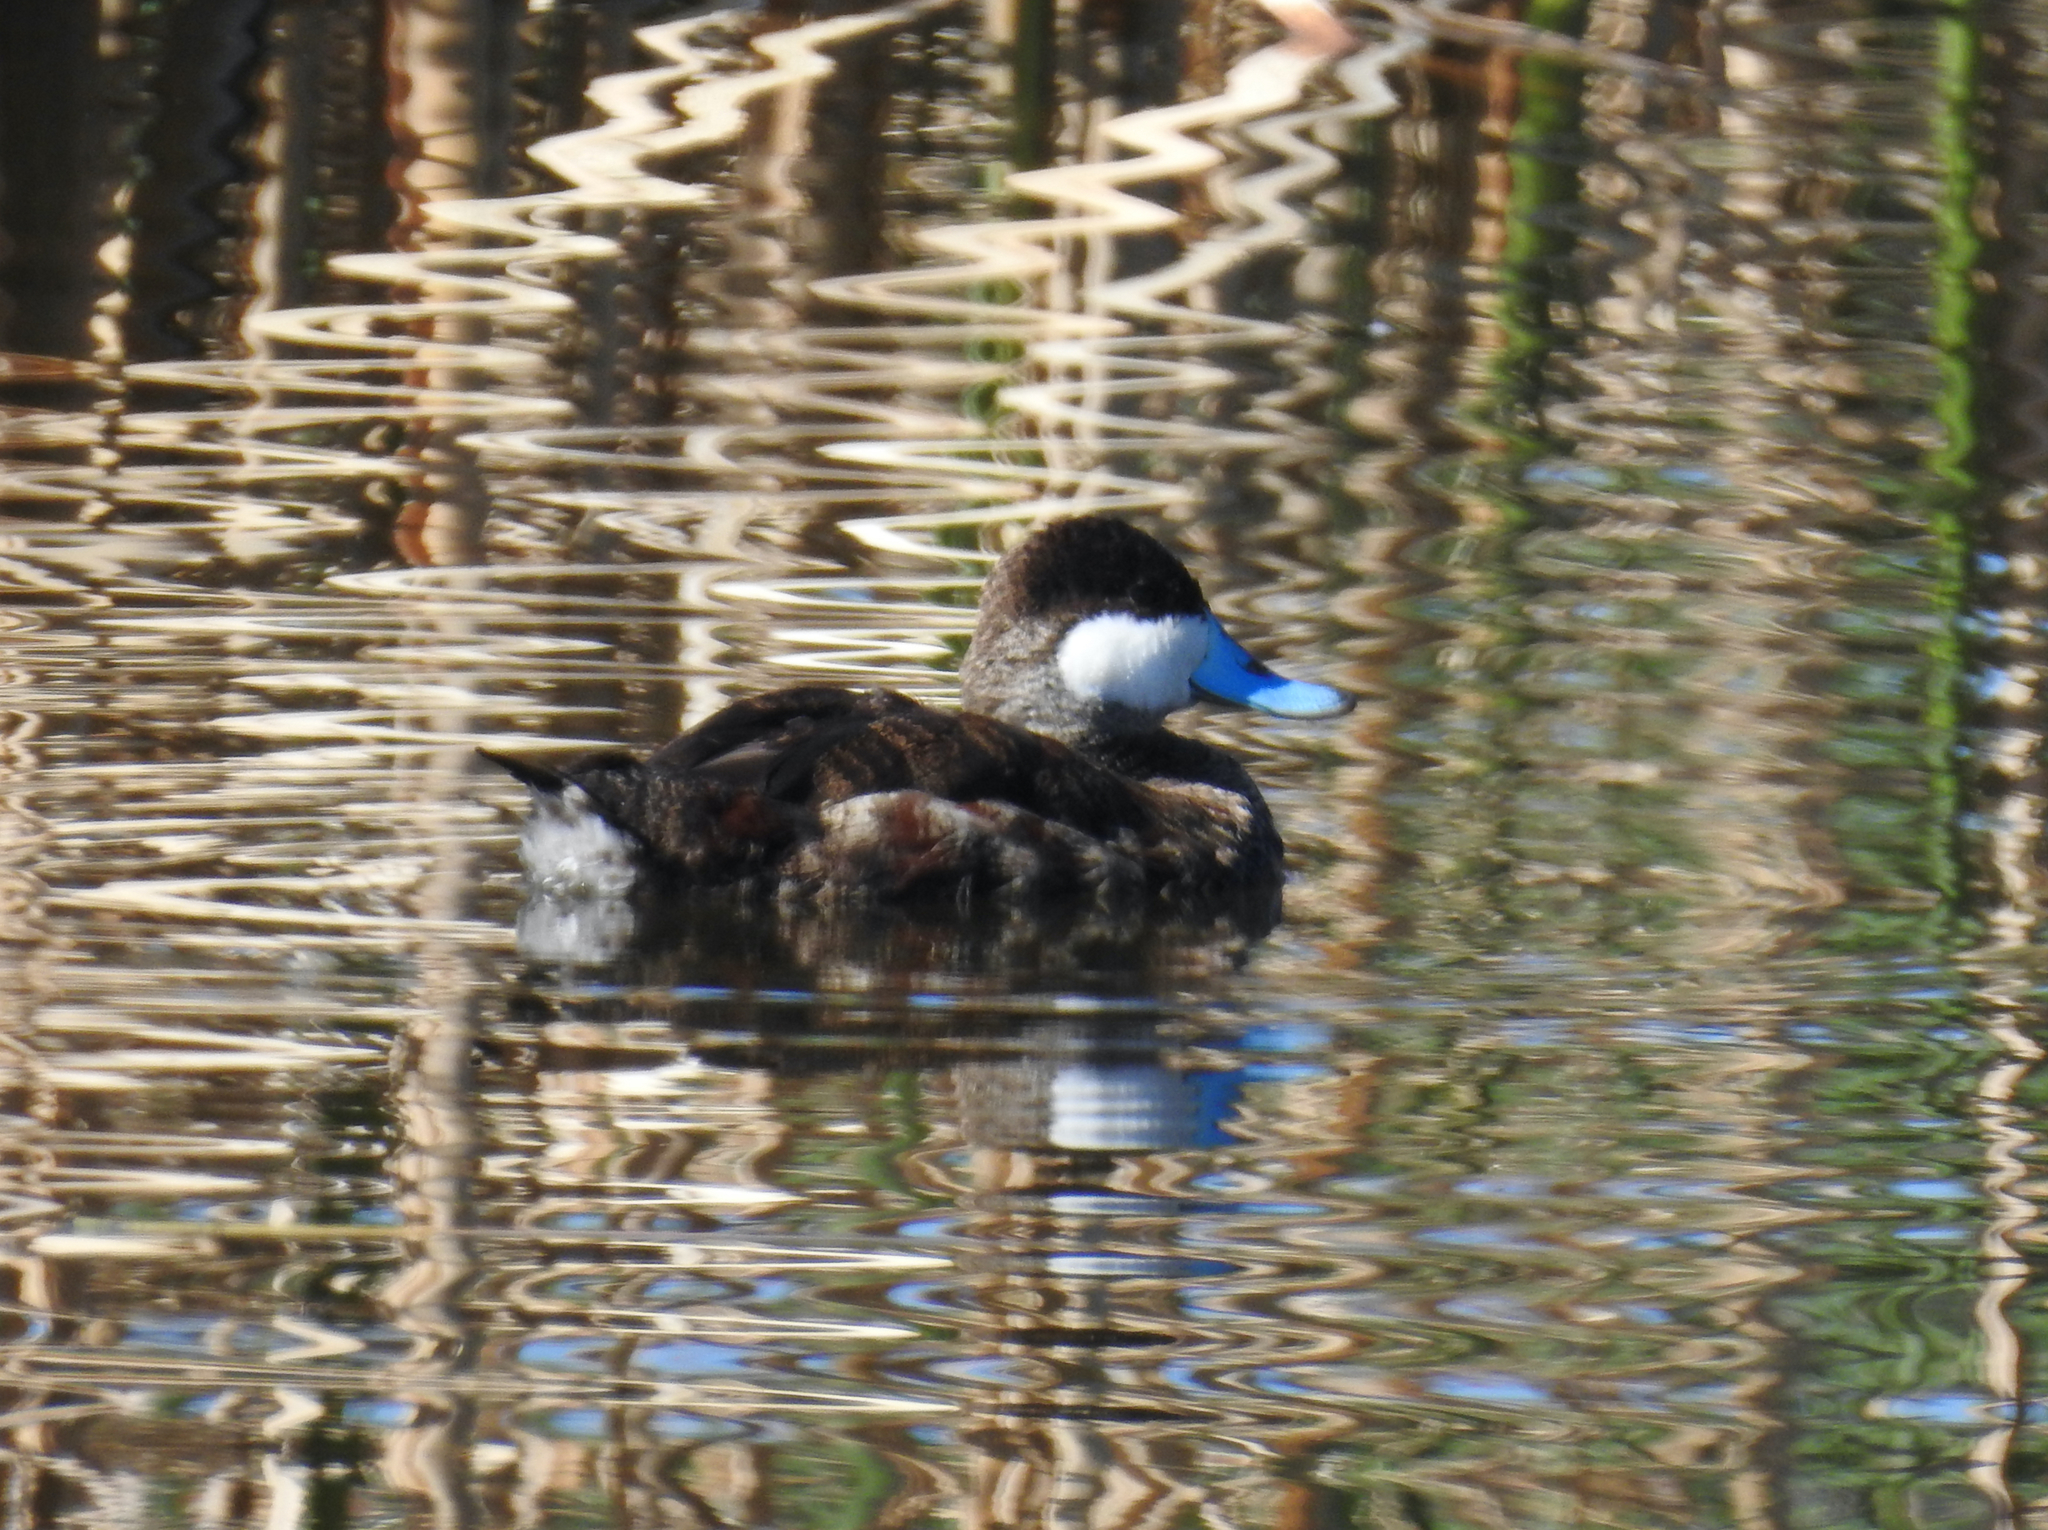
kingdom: Animalia
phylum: Chordata
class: Aves
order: Anseriformes
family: Anatidae
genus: Oxyura
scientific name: Oxyura jamaicensis
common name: Ruddy duck
